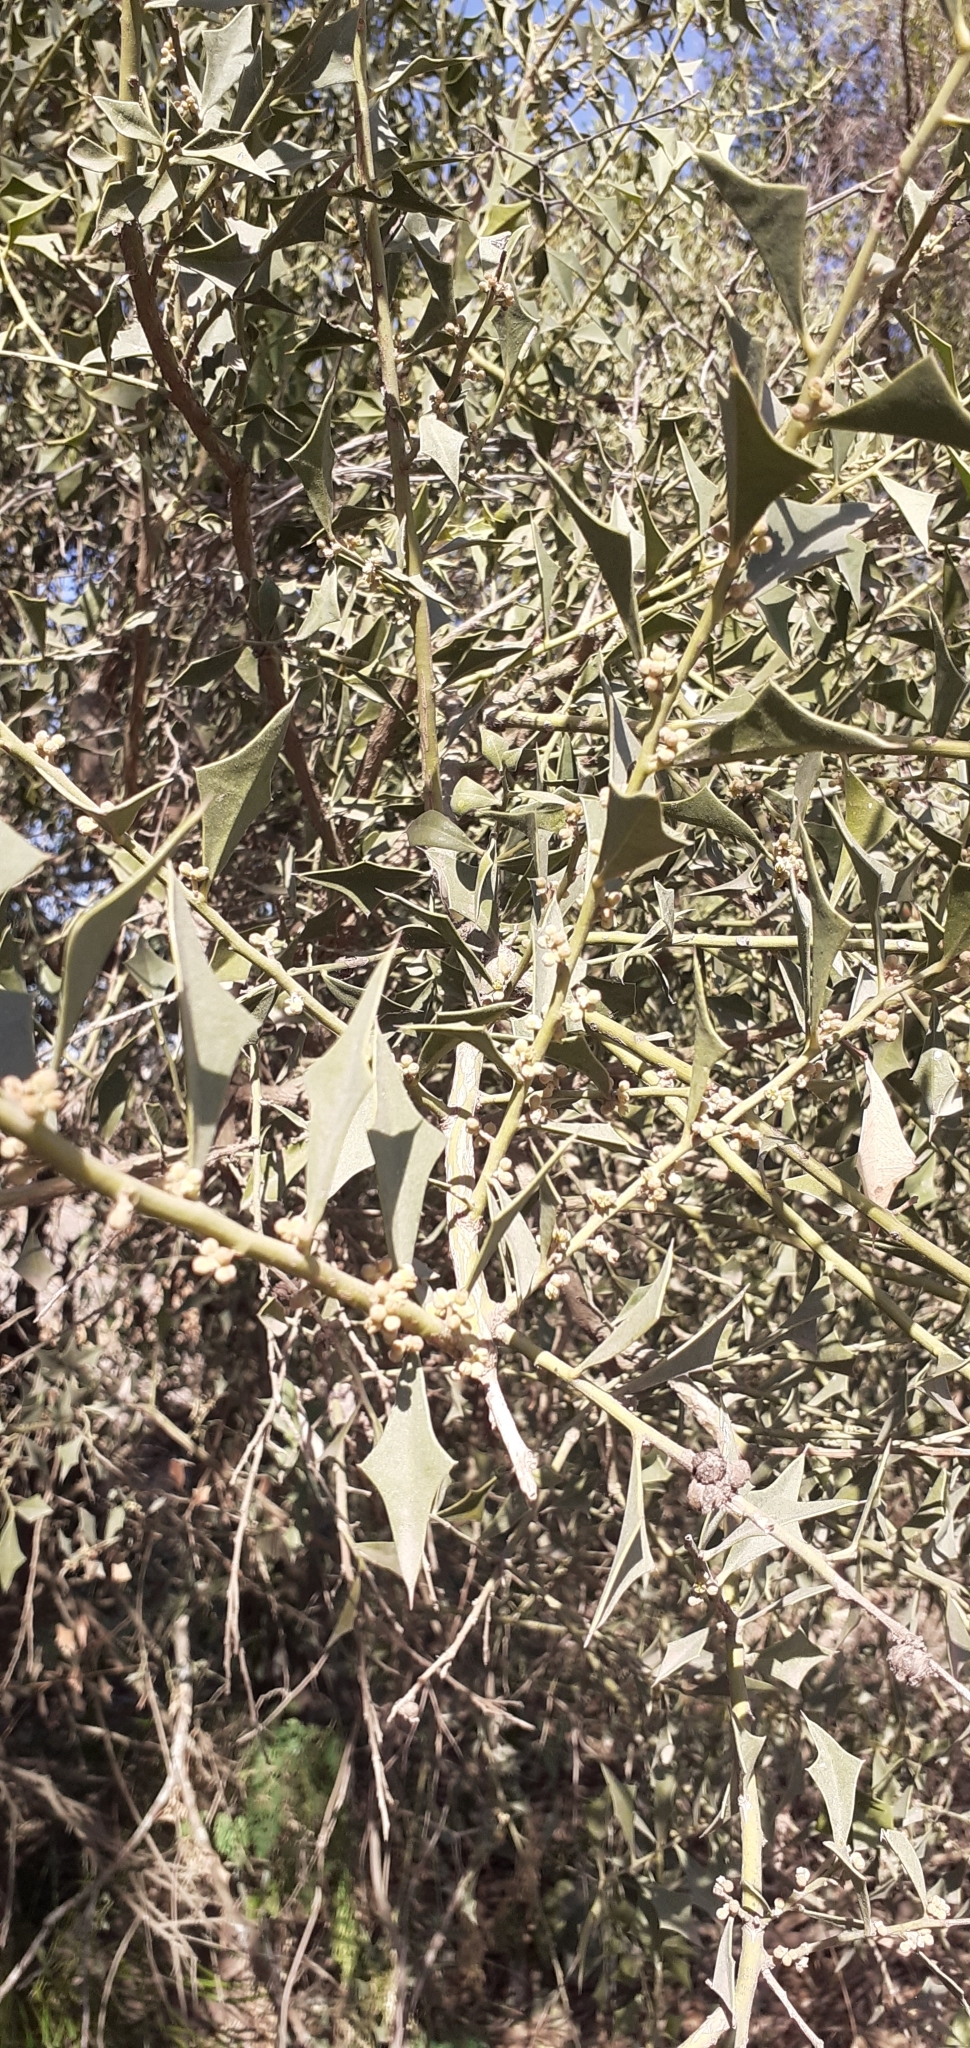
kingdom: Plantae
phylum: Tracheophyta
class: Magnoliopsida
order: Santalales
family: Cervantesiaceae
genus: Jodina
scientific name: Jodina rhombifolia
